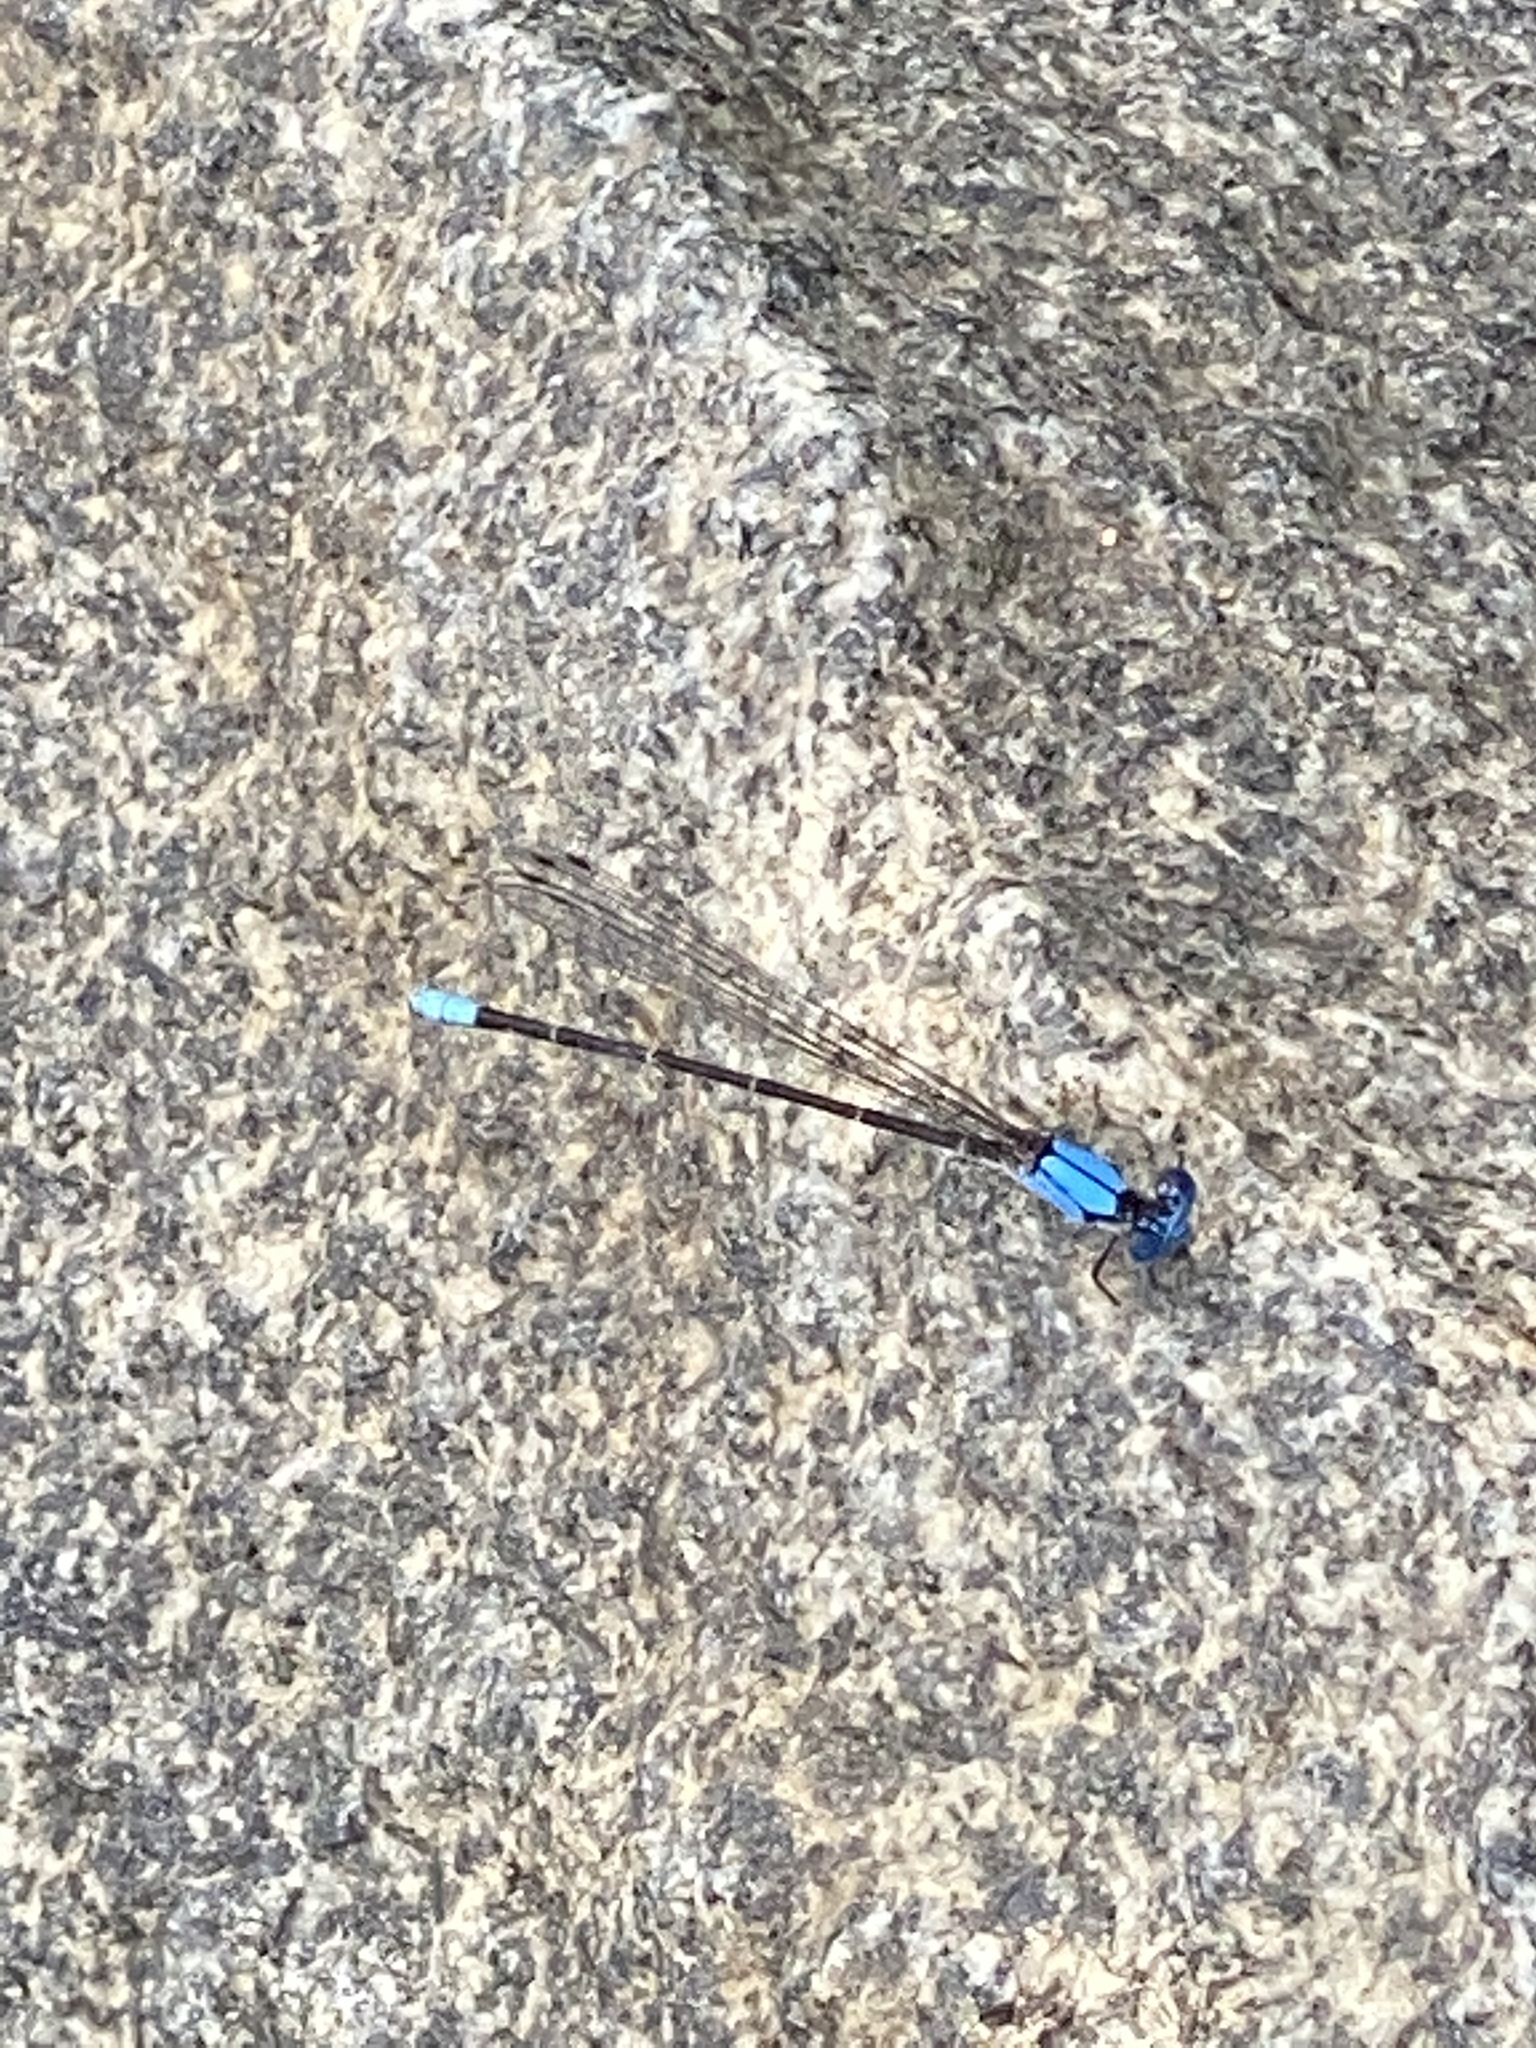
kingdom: Animalia
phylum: Arthropoda
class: Insecta
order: Odonata
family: Coenagrionidae
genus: Argia
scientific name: Argia apicalis
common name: Blue-fronted dancer
